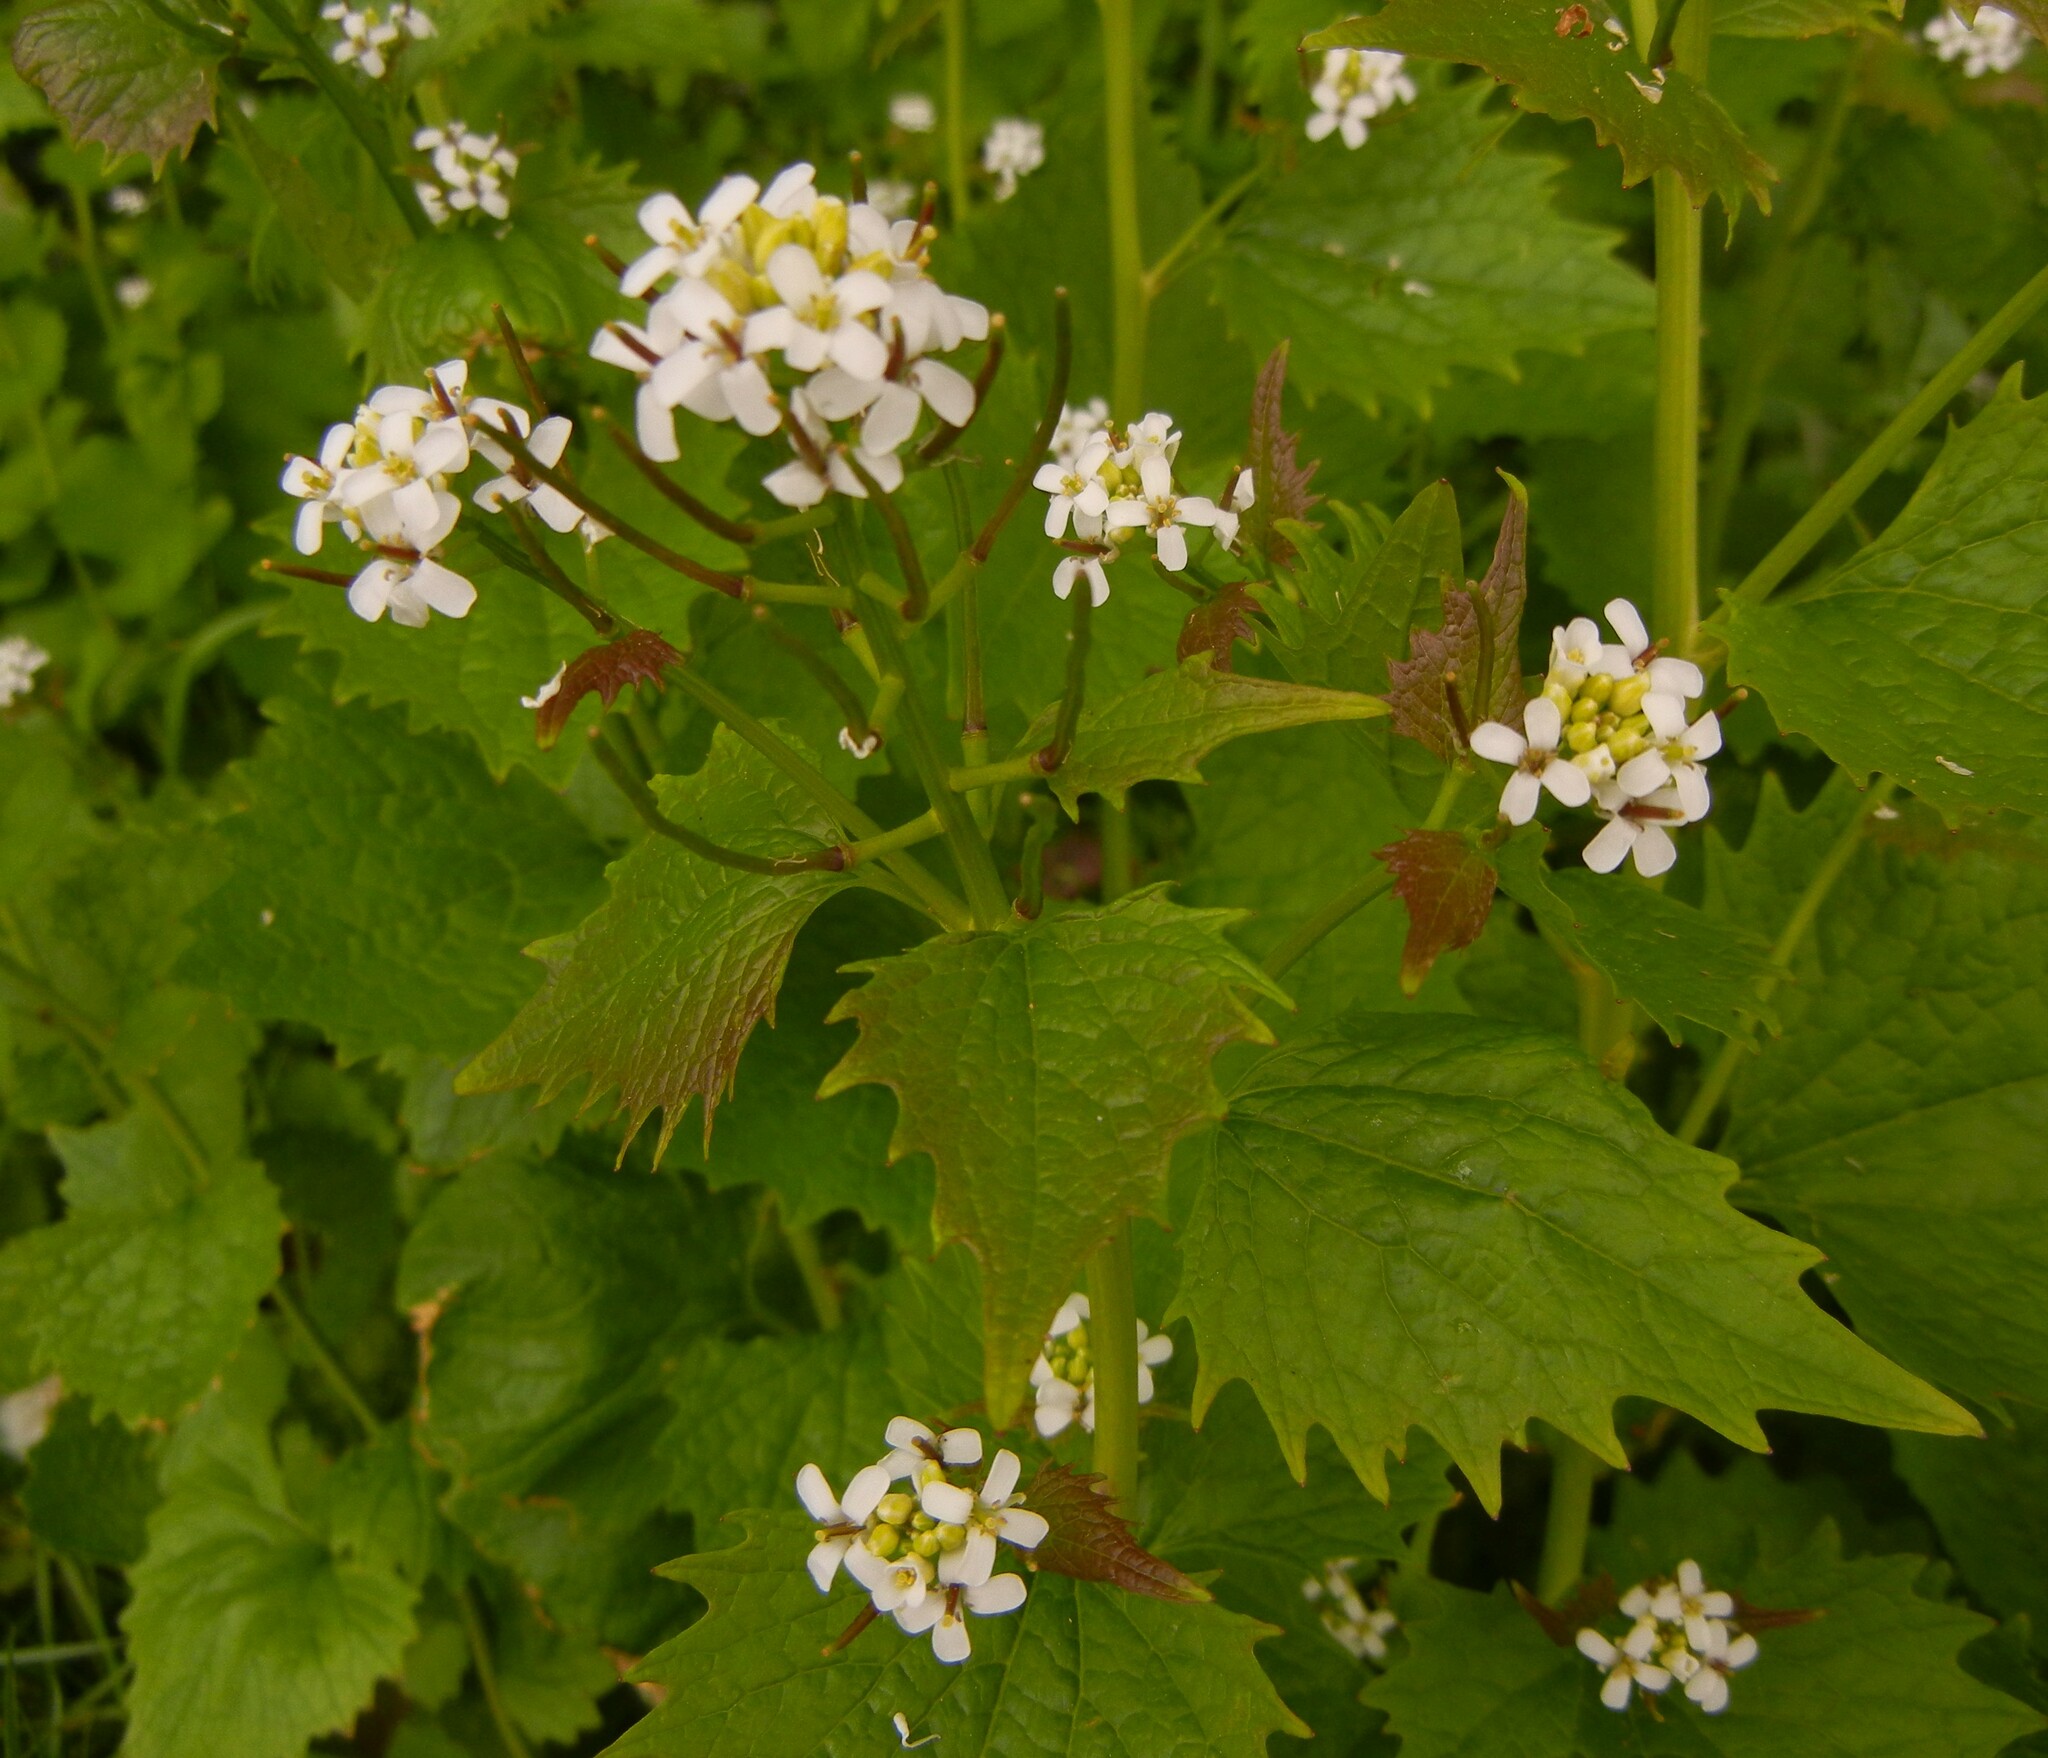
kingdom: Plantae
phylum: Tracheophyta
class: Magnoliopsida
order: Brassicales
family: Brassicaceae
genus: Alliaria
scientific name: Alliaria petiolata
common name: Garlic mustard
